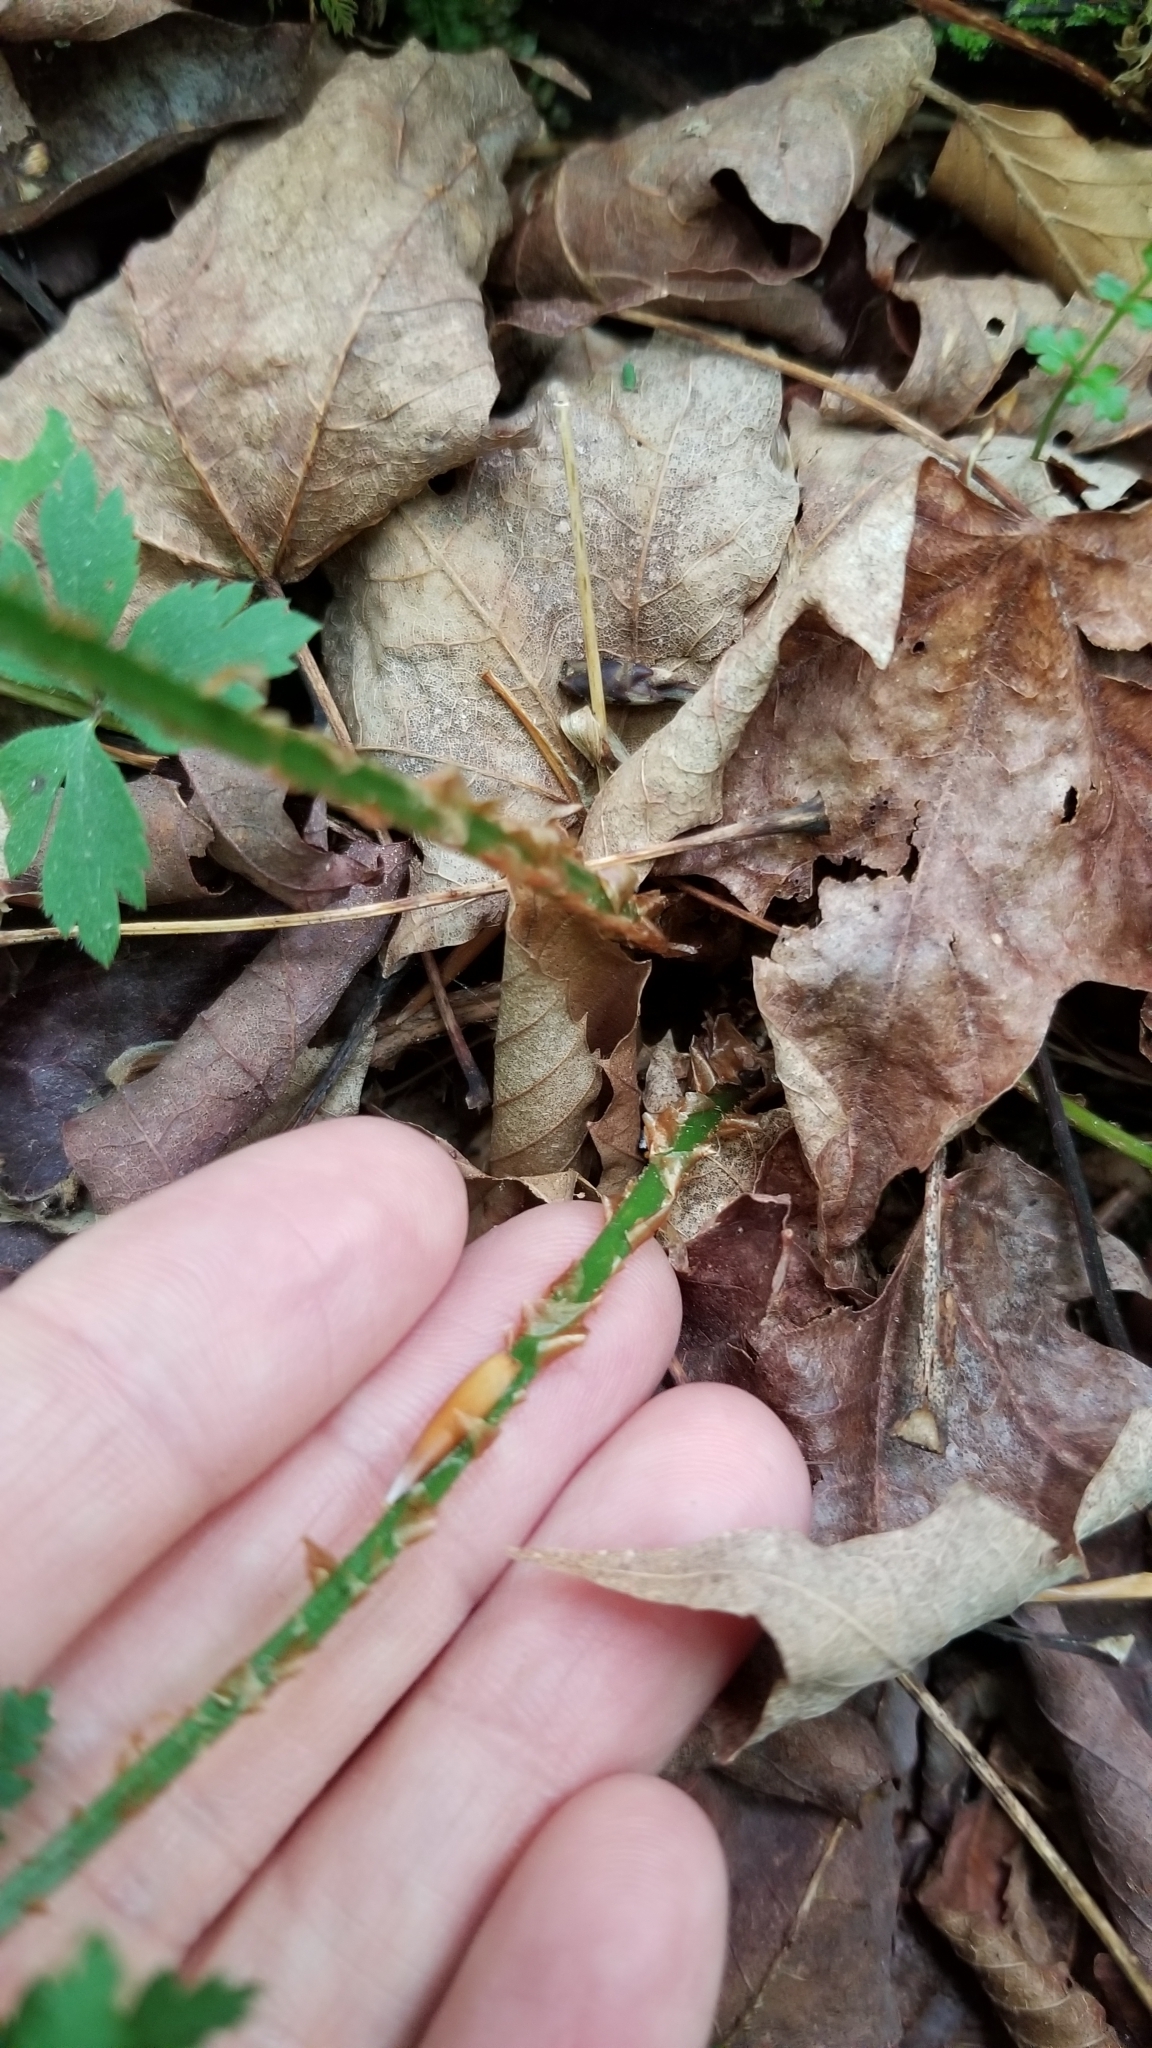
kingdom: Plantae
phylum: Tracheophyta
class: Polypodiopsida
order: Polypodiales
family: Dryopteridaceae
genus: Dryopteris
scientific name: Dryopteris intermedia
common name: Evergreen wood fern
